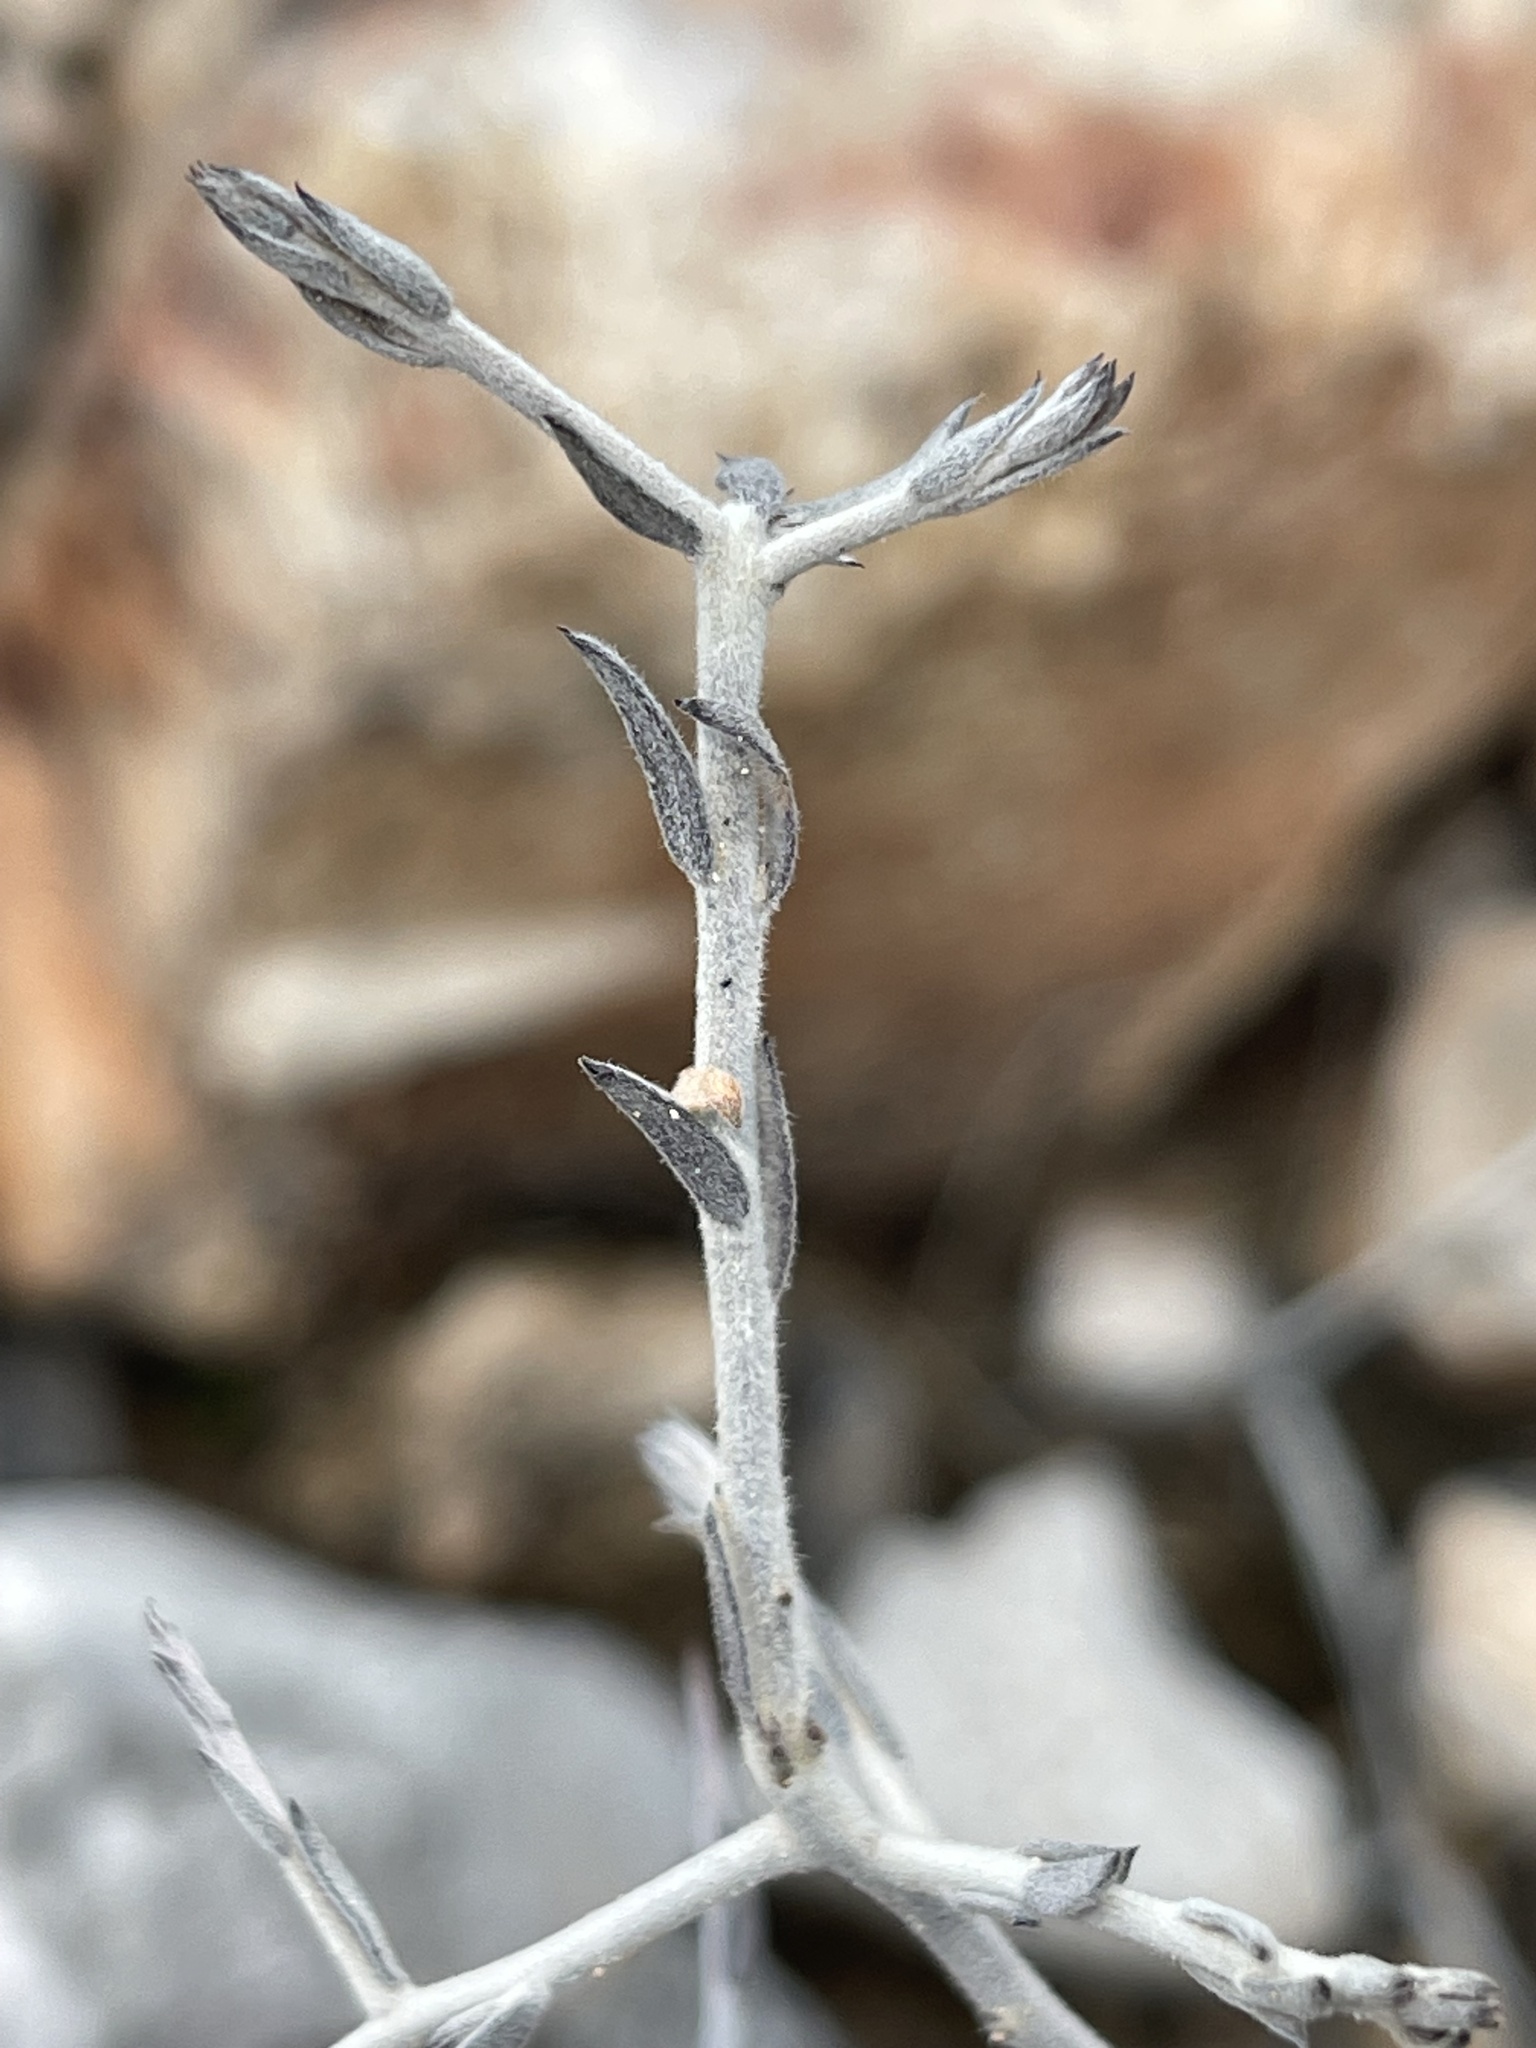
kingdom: Plantae
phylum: Tracheophyta
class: Magnoliopsida
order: Zygophyllales
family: Krameriaceae
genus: Krameria
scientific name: Krameria bicolor
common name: White ratany
